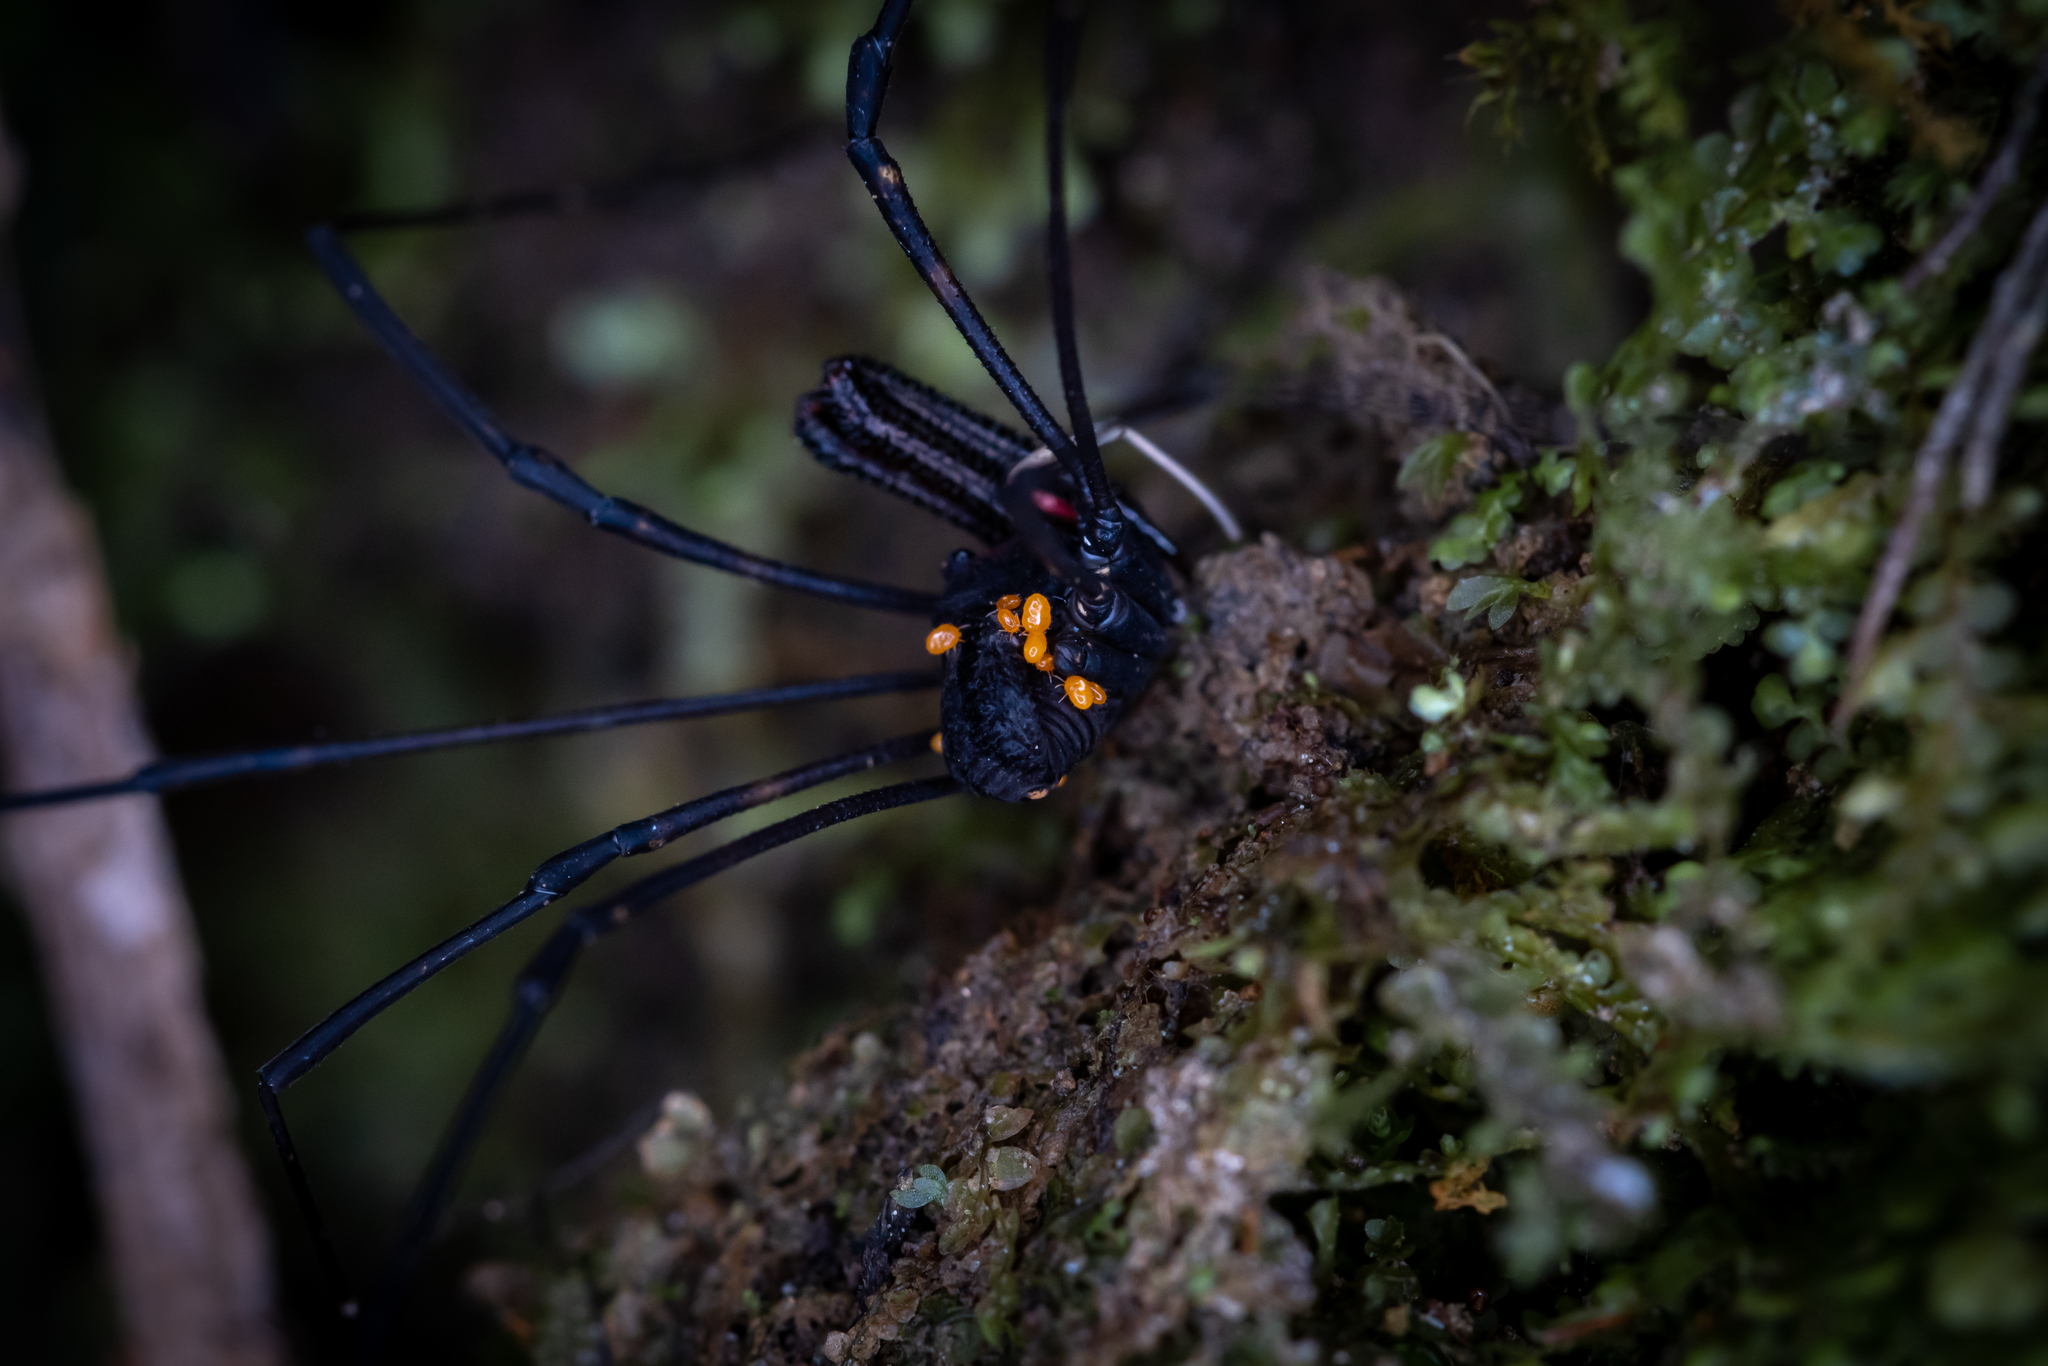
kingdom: Animalia
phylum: Arthropoda
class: Arachnida
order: Opiliones
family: Neopilionidae
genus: Forsteropsalis
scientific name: Forsteropsalis inconstans
